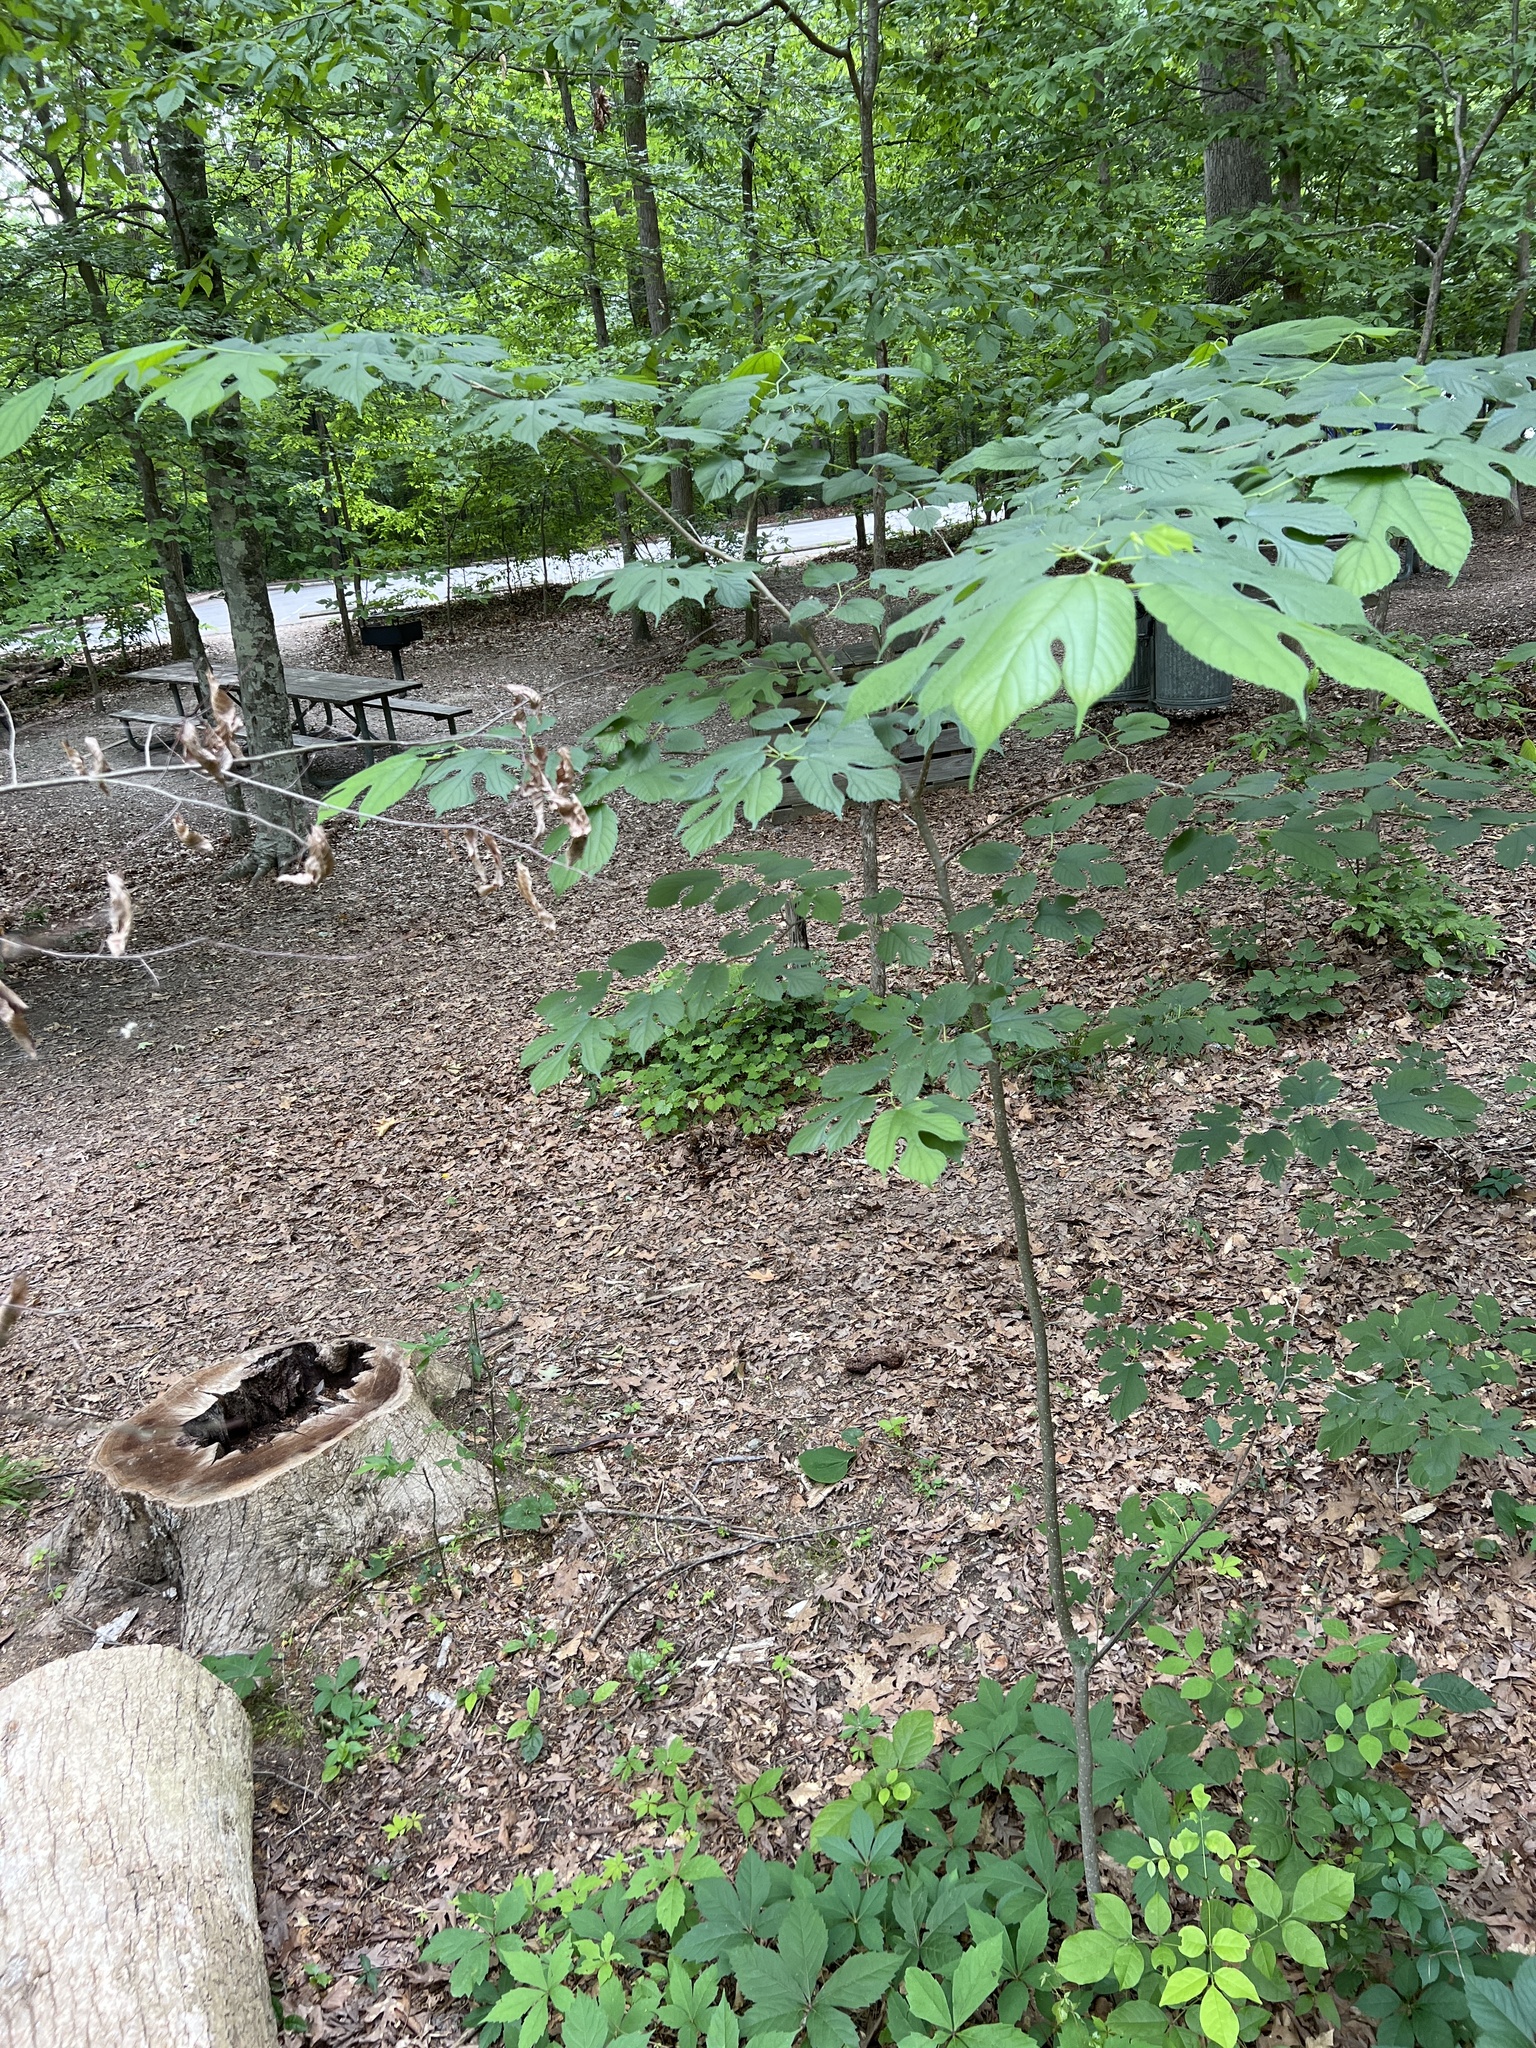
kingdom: Plantae
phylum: Tracheophyta
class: Magnoliopsida
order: Rosales
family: Moraceae
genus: Morus
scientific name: Morus rubra
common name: Red mulberry
